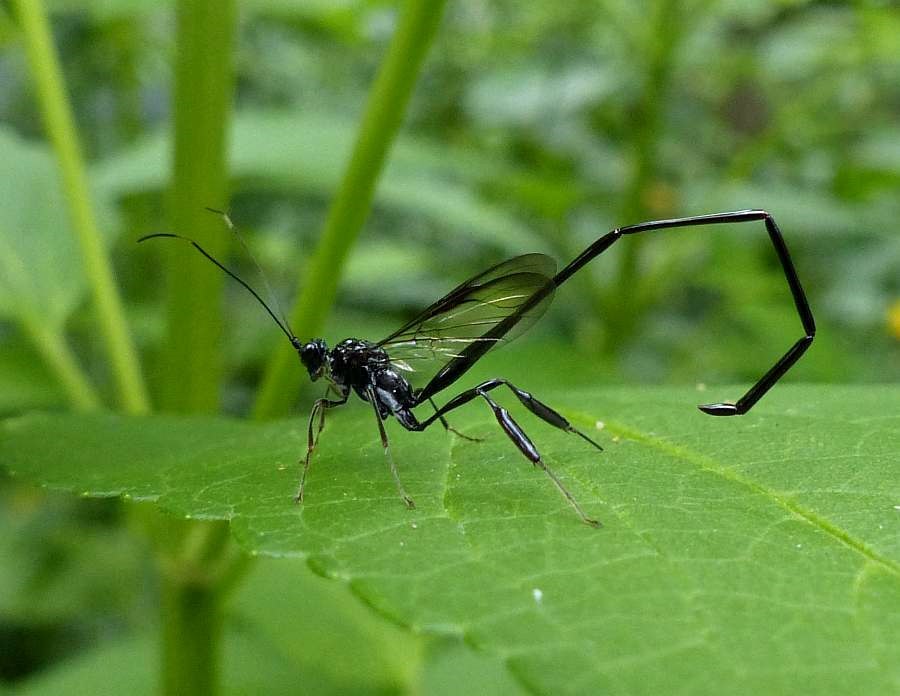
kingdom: Animalia
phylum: Arthropoda
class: Insecta
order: Hymenoptera
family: Pelecinidae
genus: Pelecinus
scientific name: Pelecinus polyturator
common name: American pelecinid wasp
